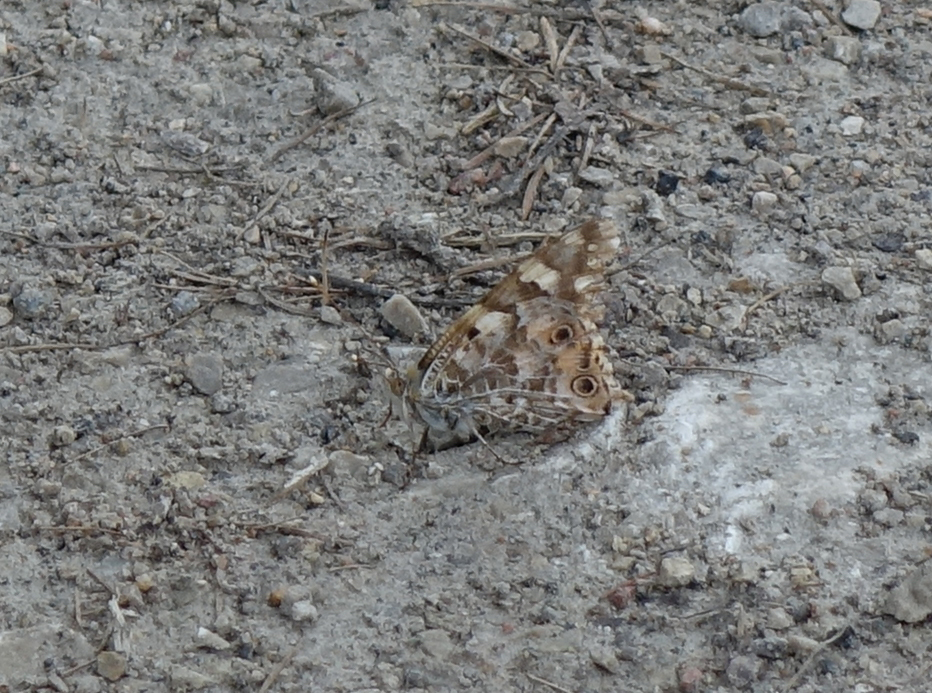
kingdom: Animalia
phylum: Arthropoda
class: Insecta
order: Lepidoptera
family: Nymphalidae
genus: Vanessa
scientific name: Vanessa cardui
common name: Painted lady
